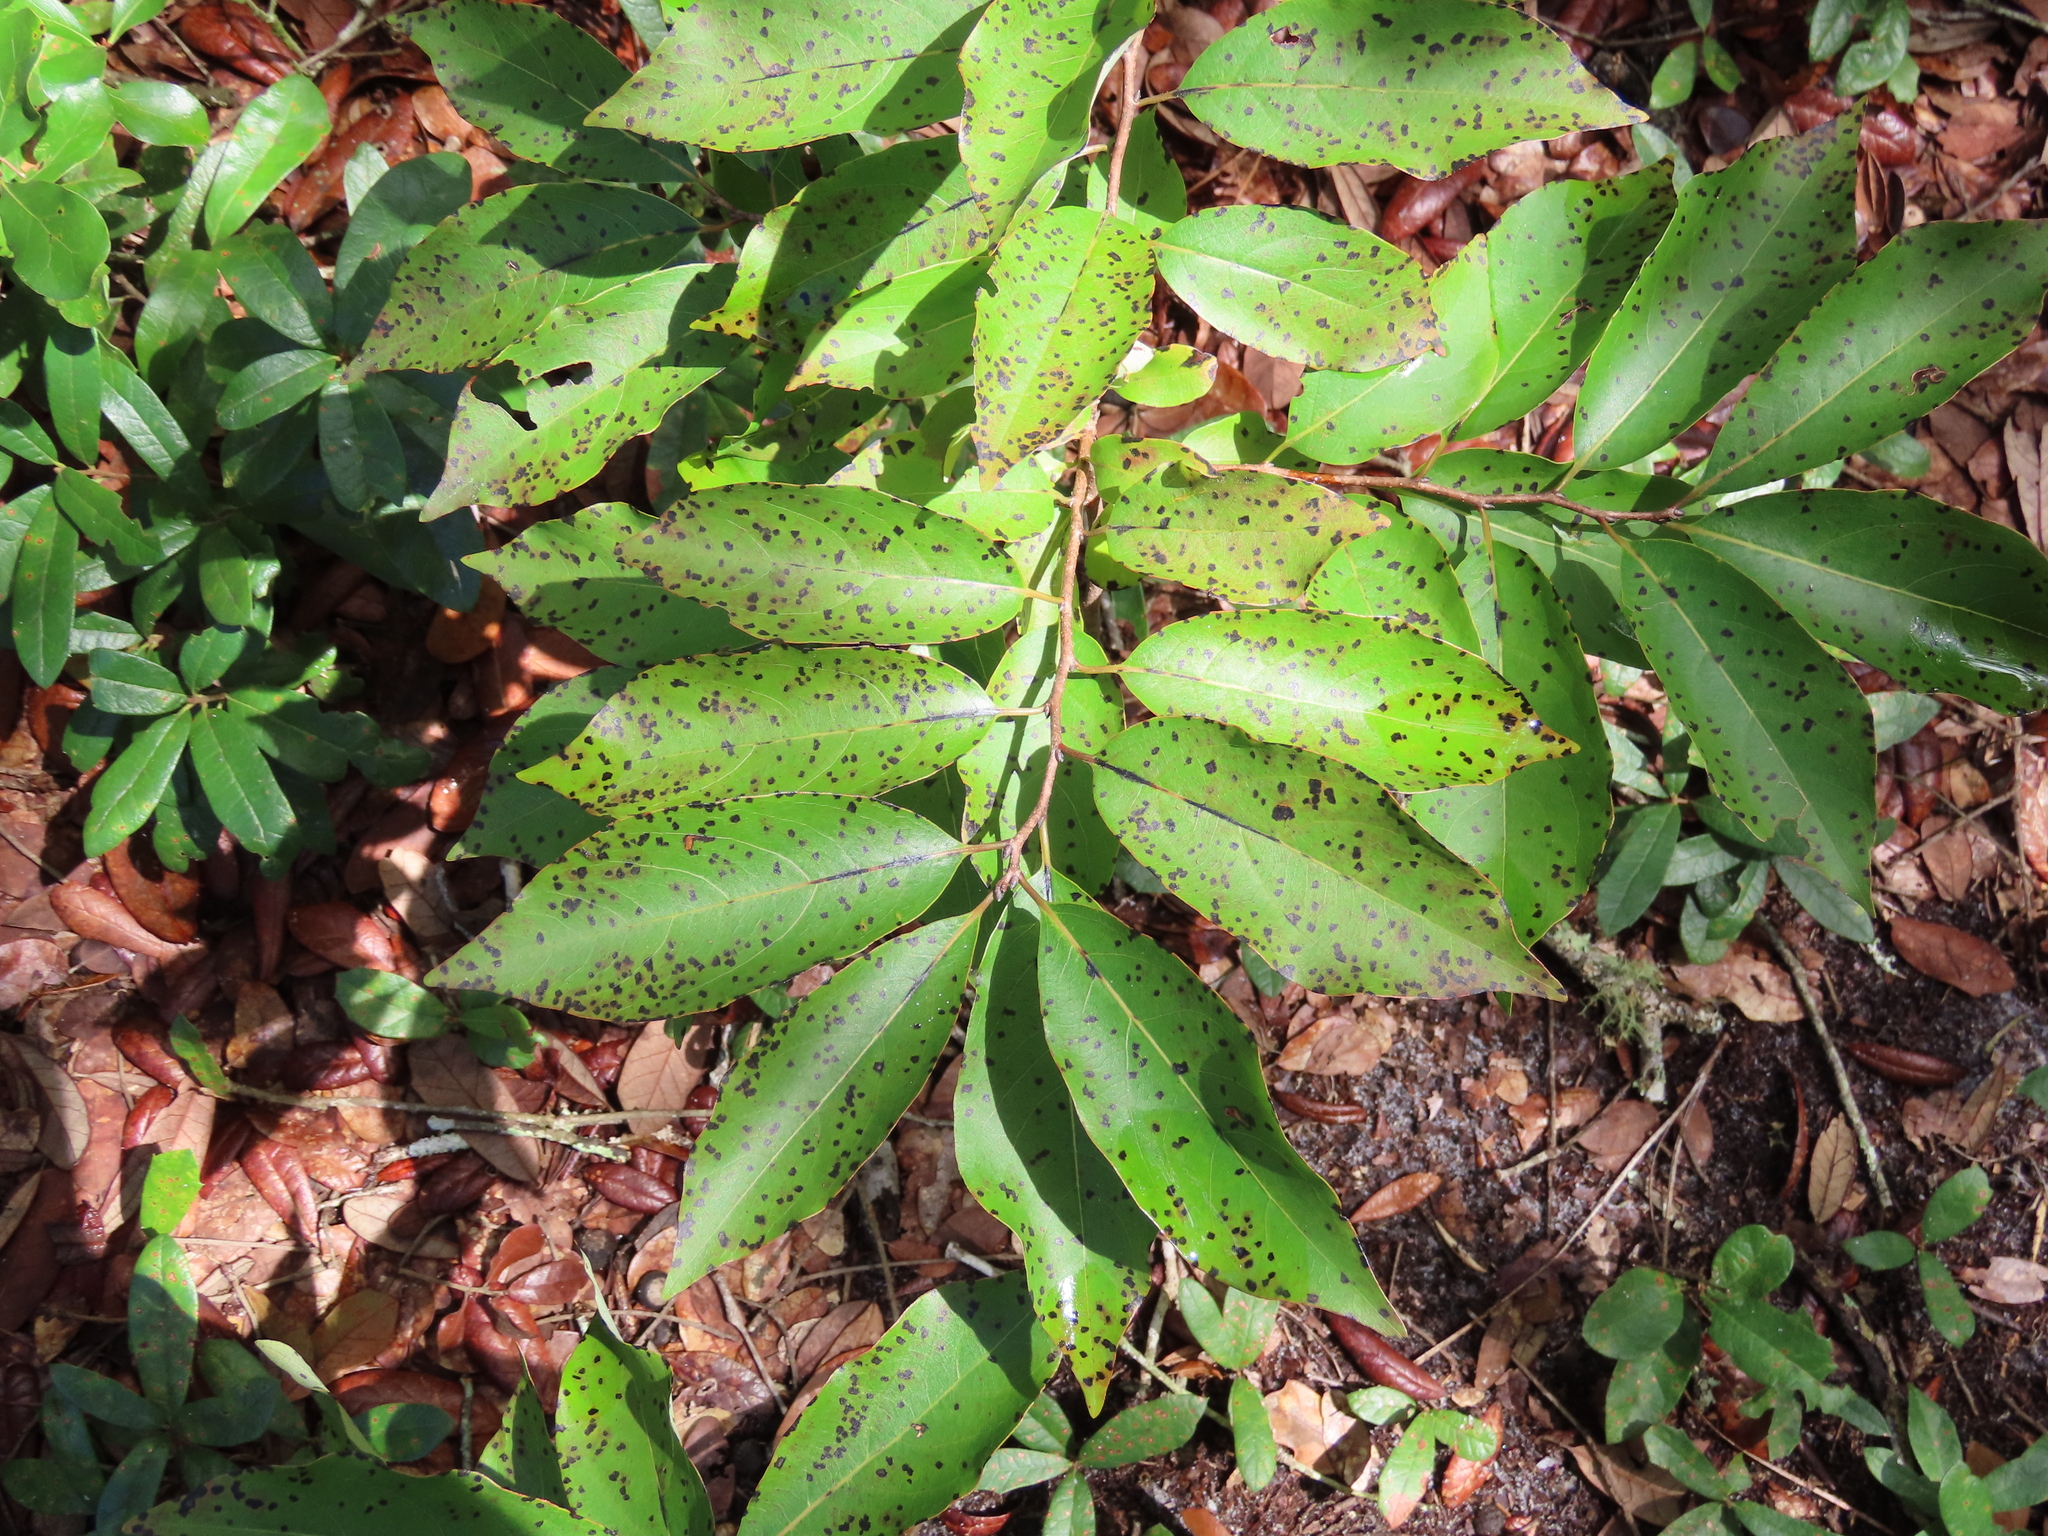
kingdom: Plantae
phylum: Tracheophyta
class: Magnoliopsida
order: Ericales
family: Ebenaceae
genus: Diospyros
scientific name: Diospyros virginiana
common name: Persimmon
